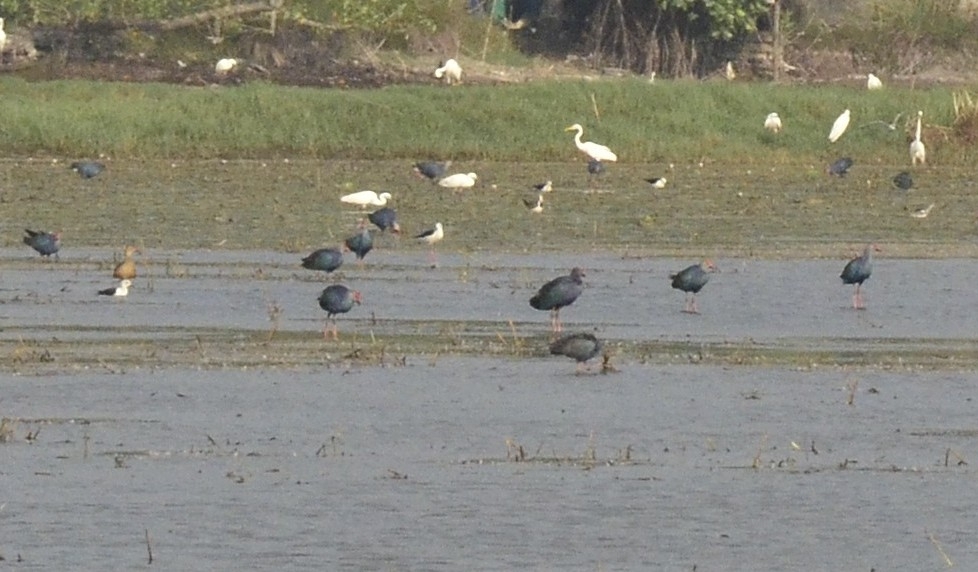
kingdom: Animalia
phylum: Chordata
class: Aves
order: Gruiformes
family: Rallidae
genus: Porphyrio
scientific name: Porphyrio porphyrio
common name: Purple swamphen
